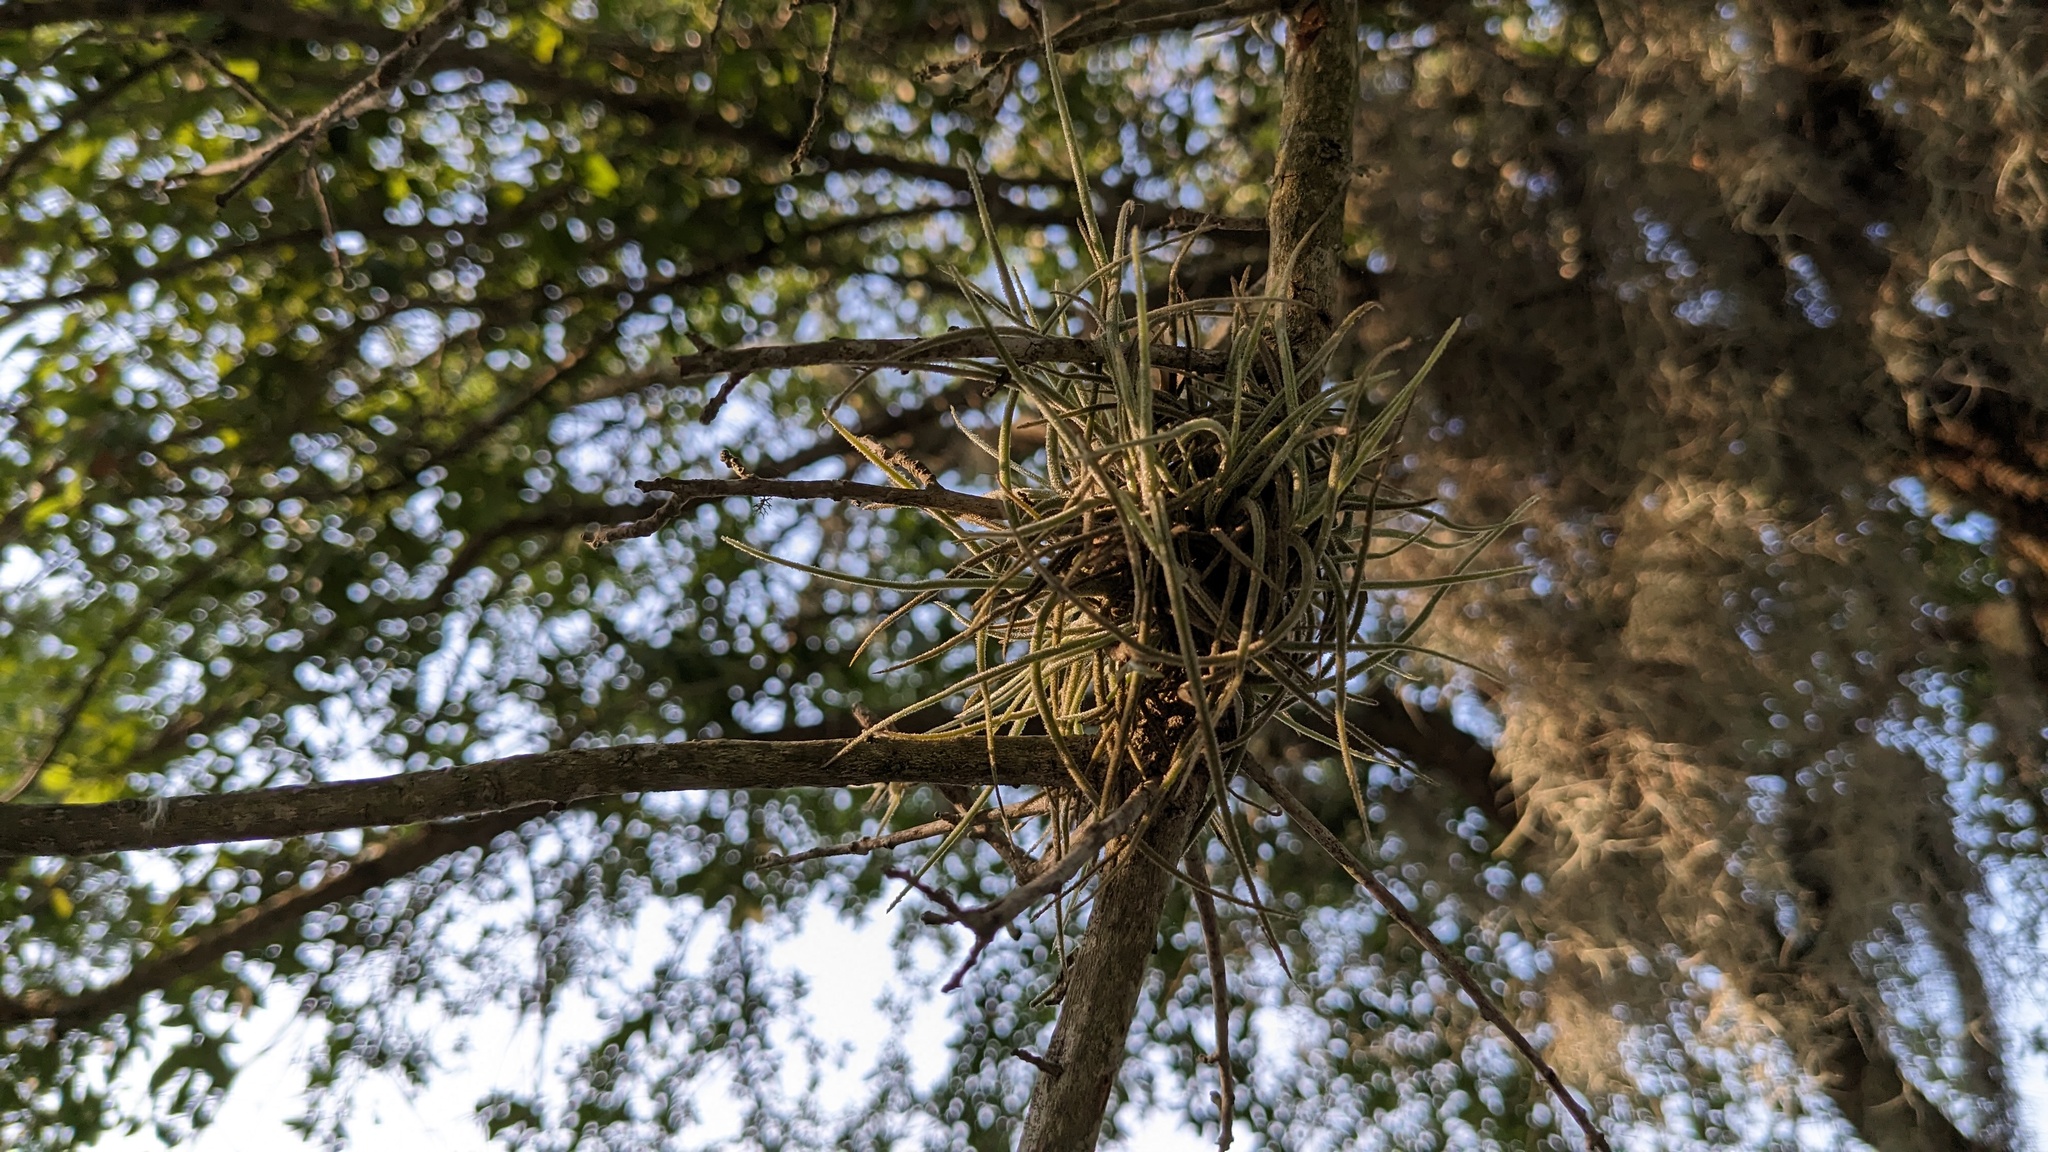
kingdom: Plantae
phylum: Tracheophyta
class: Liliopsida
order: Poales
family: Bromeliaceae
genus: Tillandsia
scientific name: Tillandsia recurvata
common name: Small ballmoss
